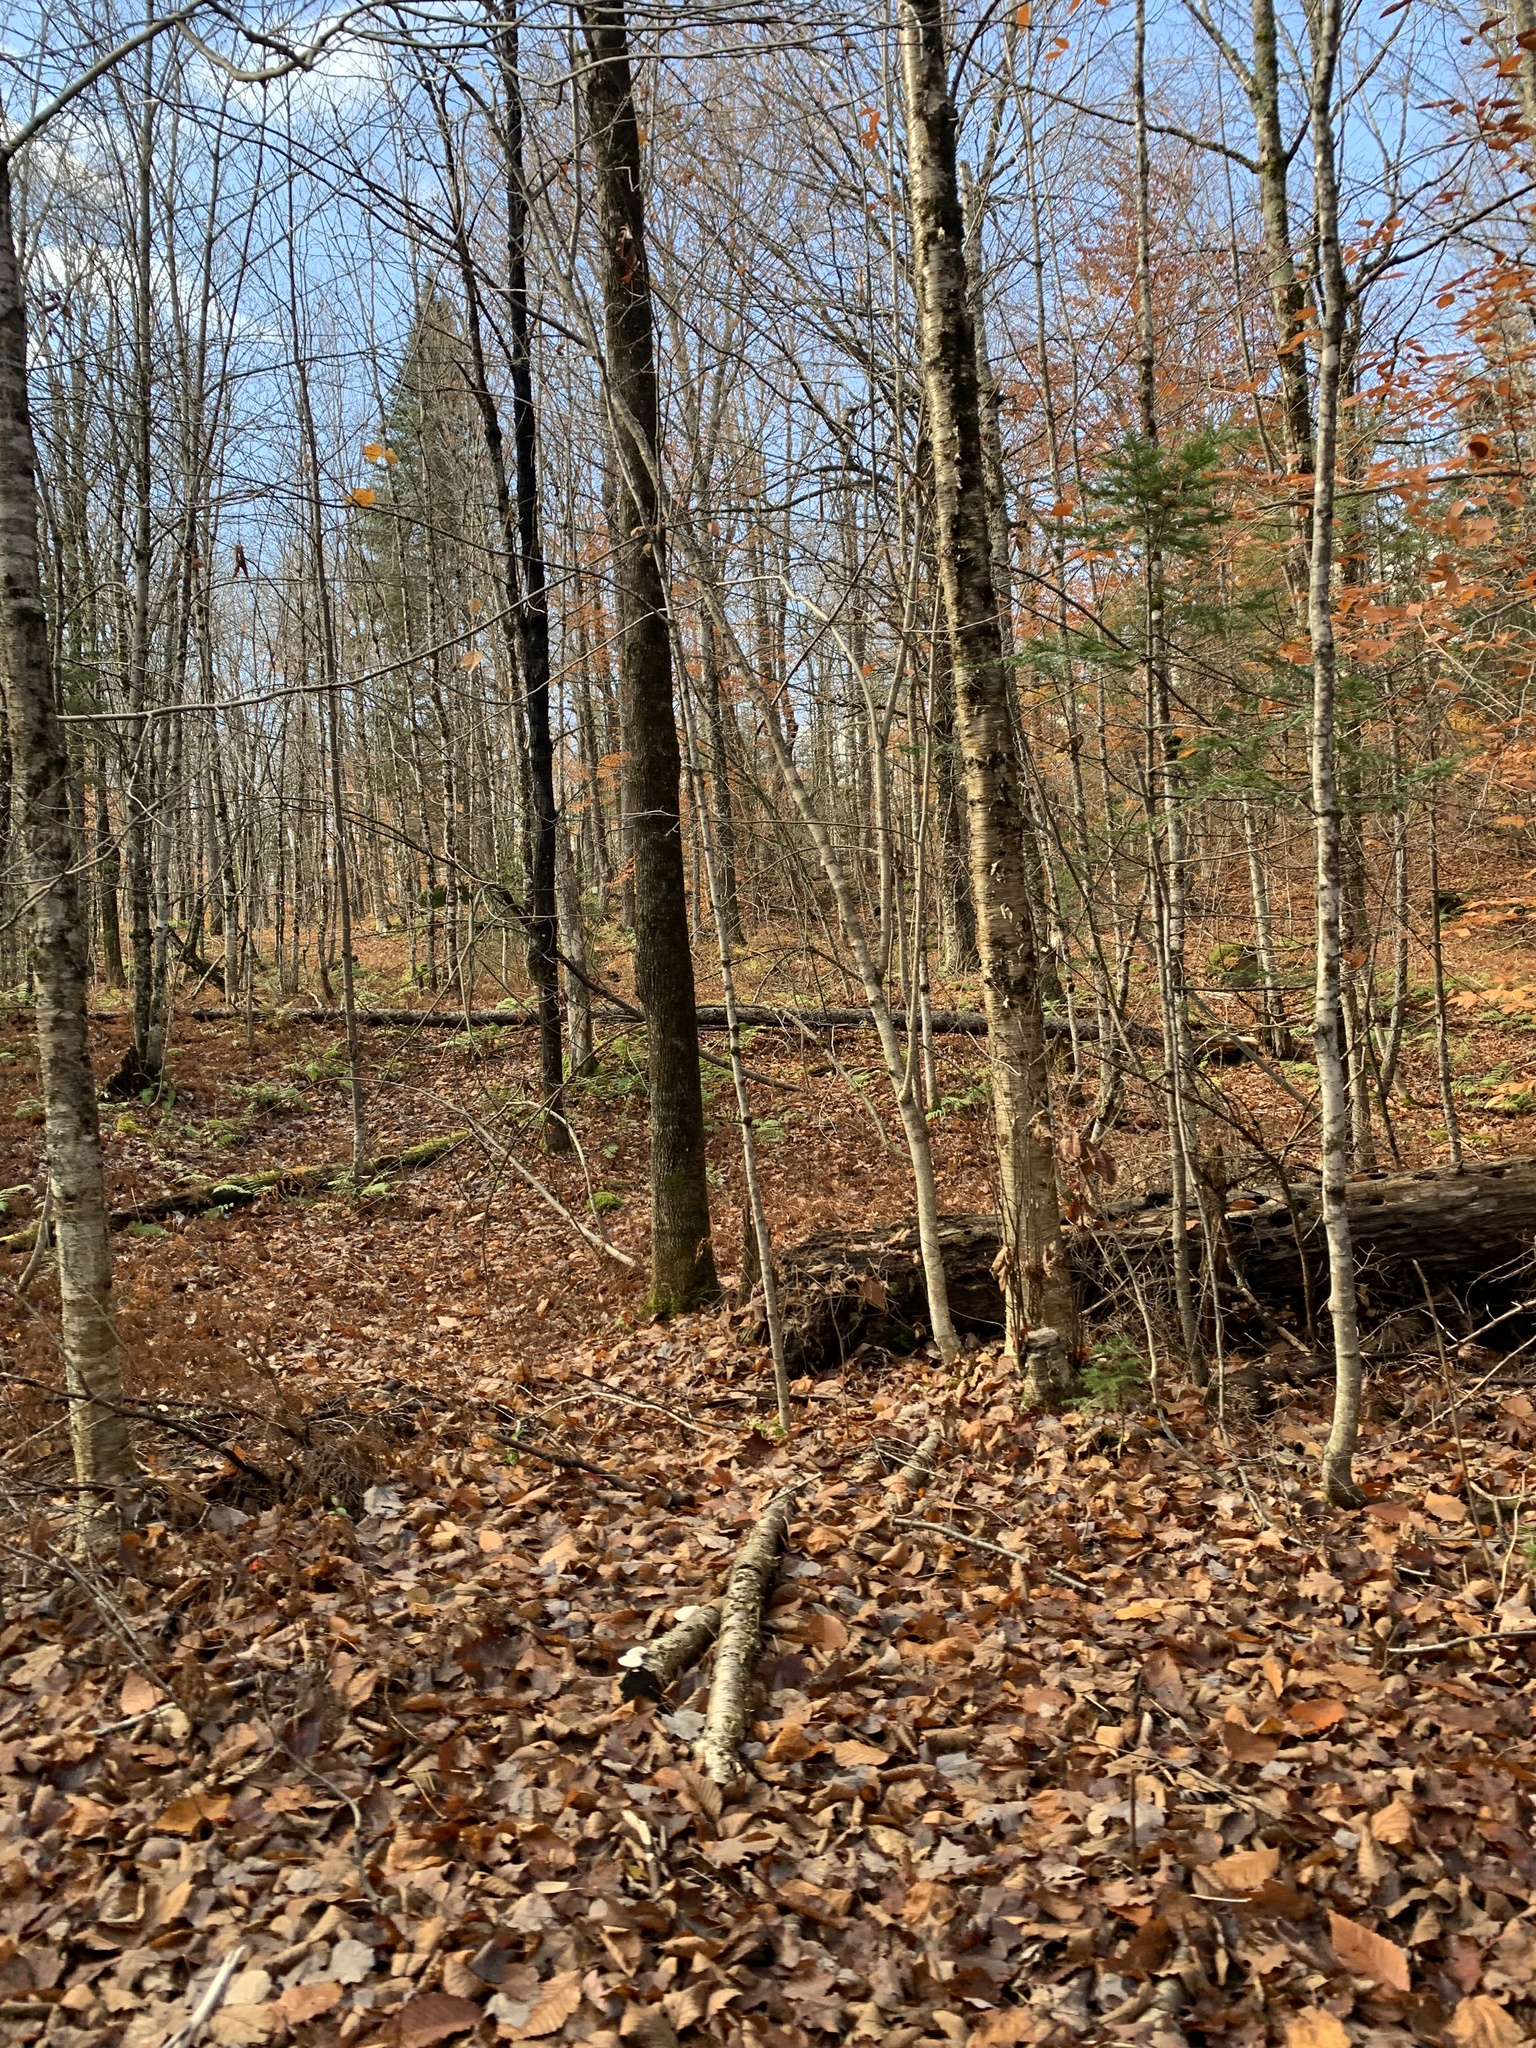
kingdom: Plantae
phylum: Tracheophyta
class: Magnoliopsida
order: Fagales
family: Betulaceae
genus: Betula
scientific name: Betula alleghaniensis
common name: Yellow birch
